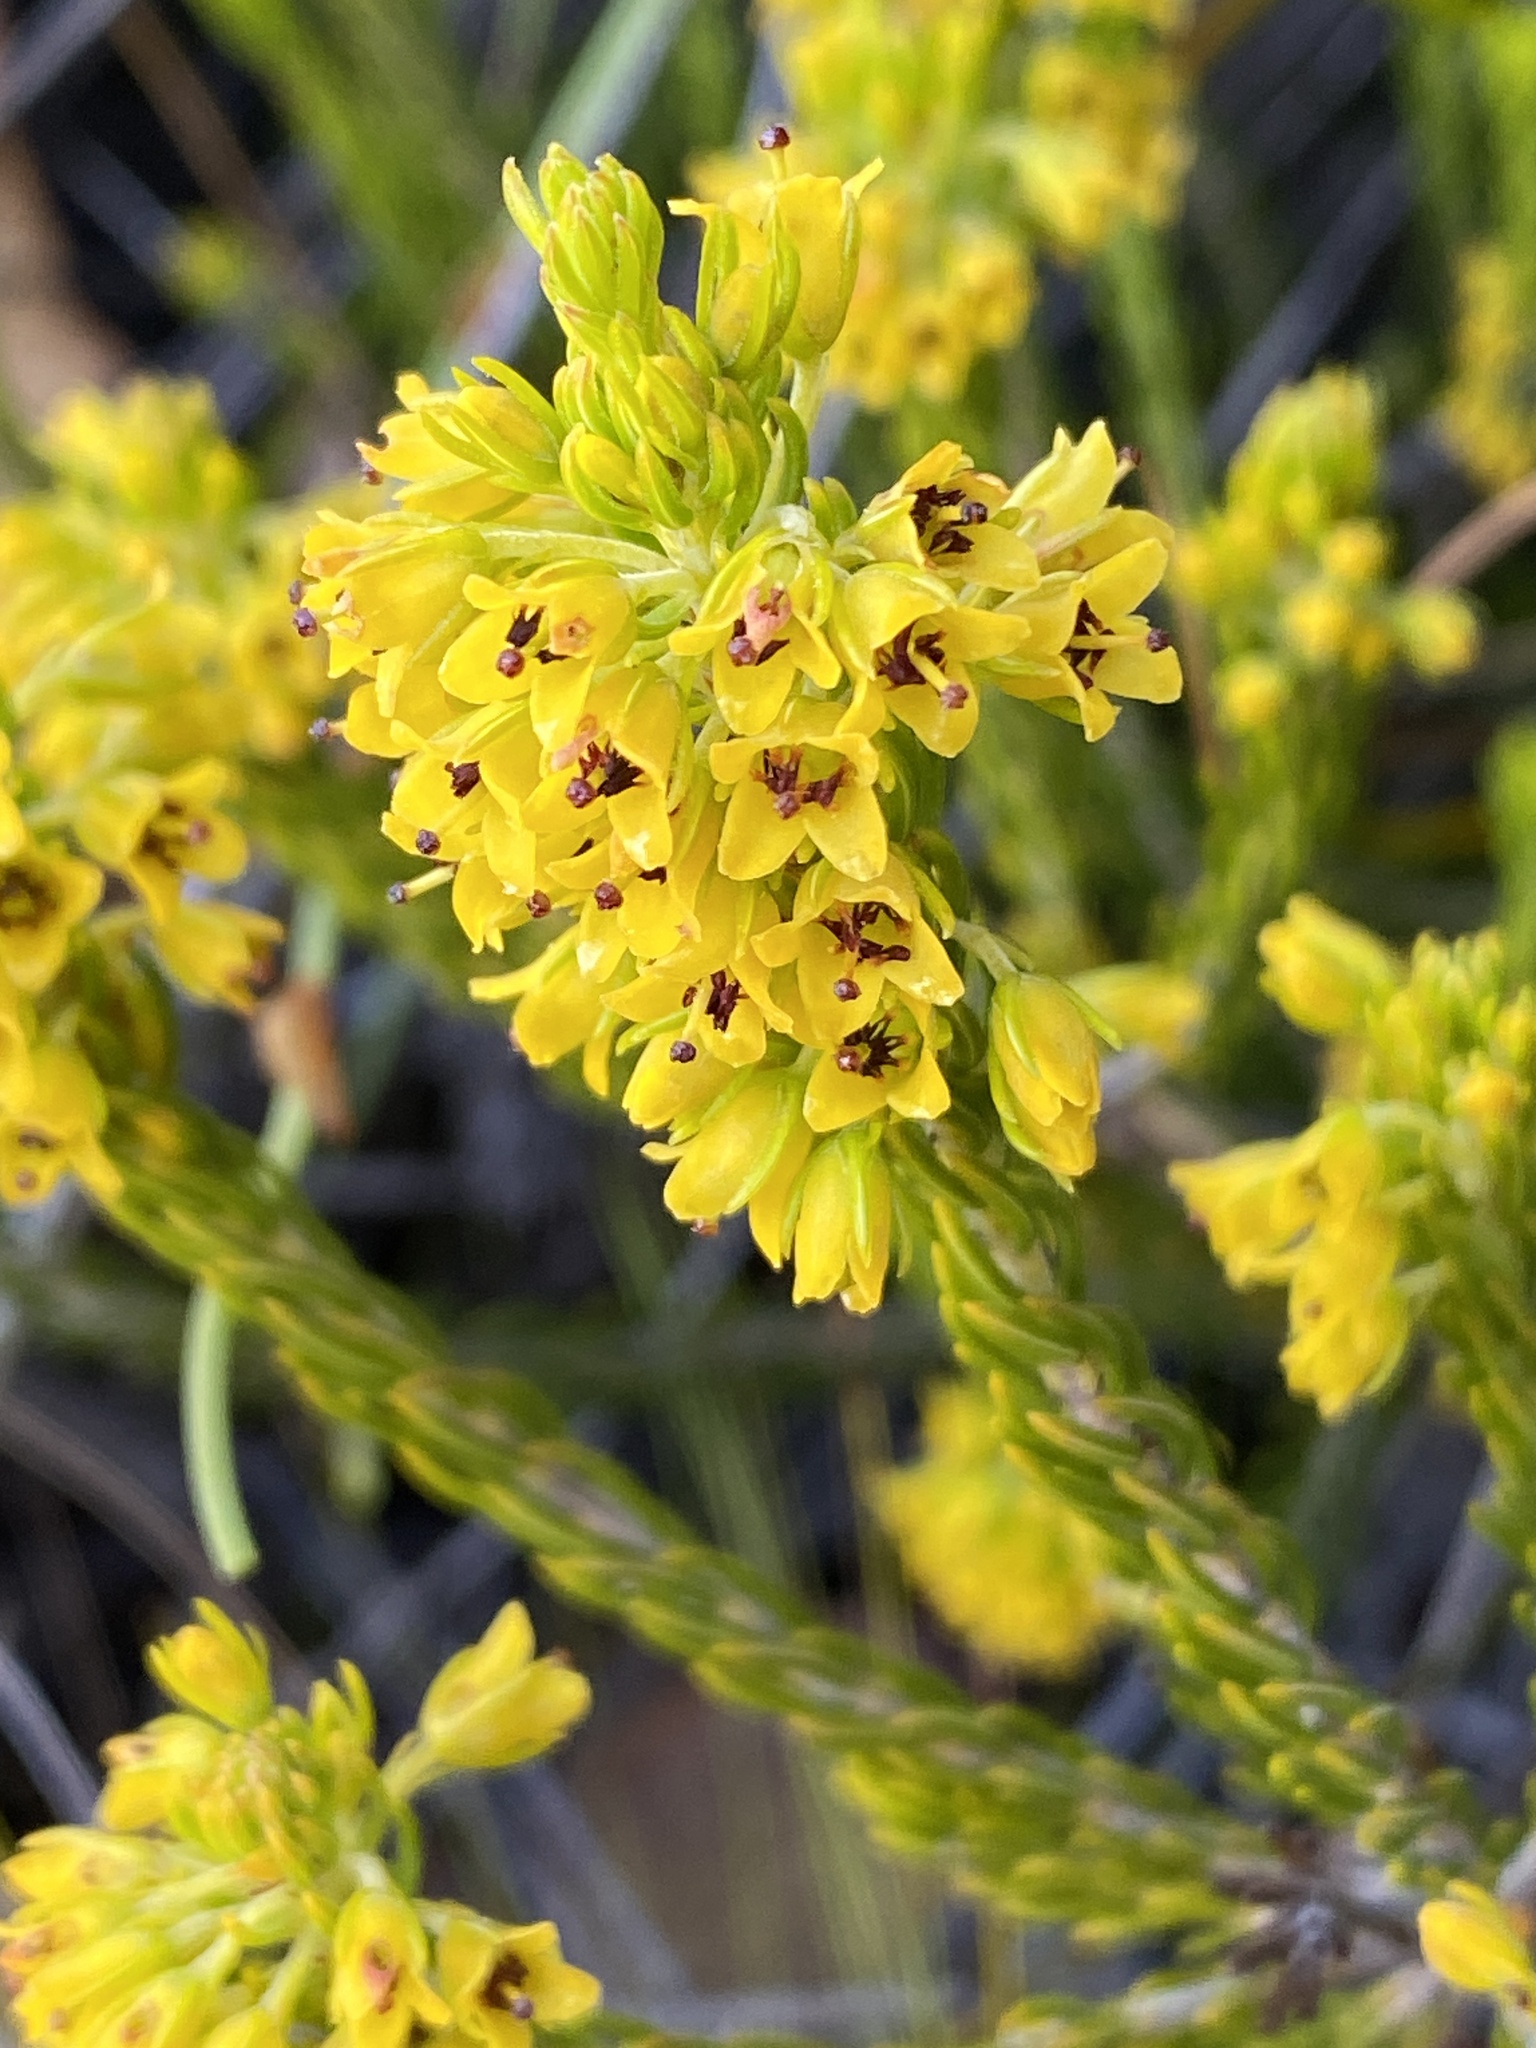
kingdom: Plantae
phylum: Tracheophyta
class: Magnoliopsida
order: Ericales
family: Ericaceae
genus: Erica
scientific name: Erica parilis
